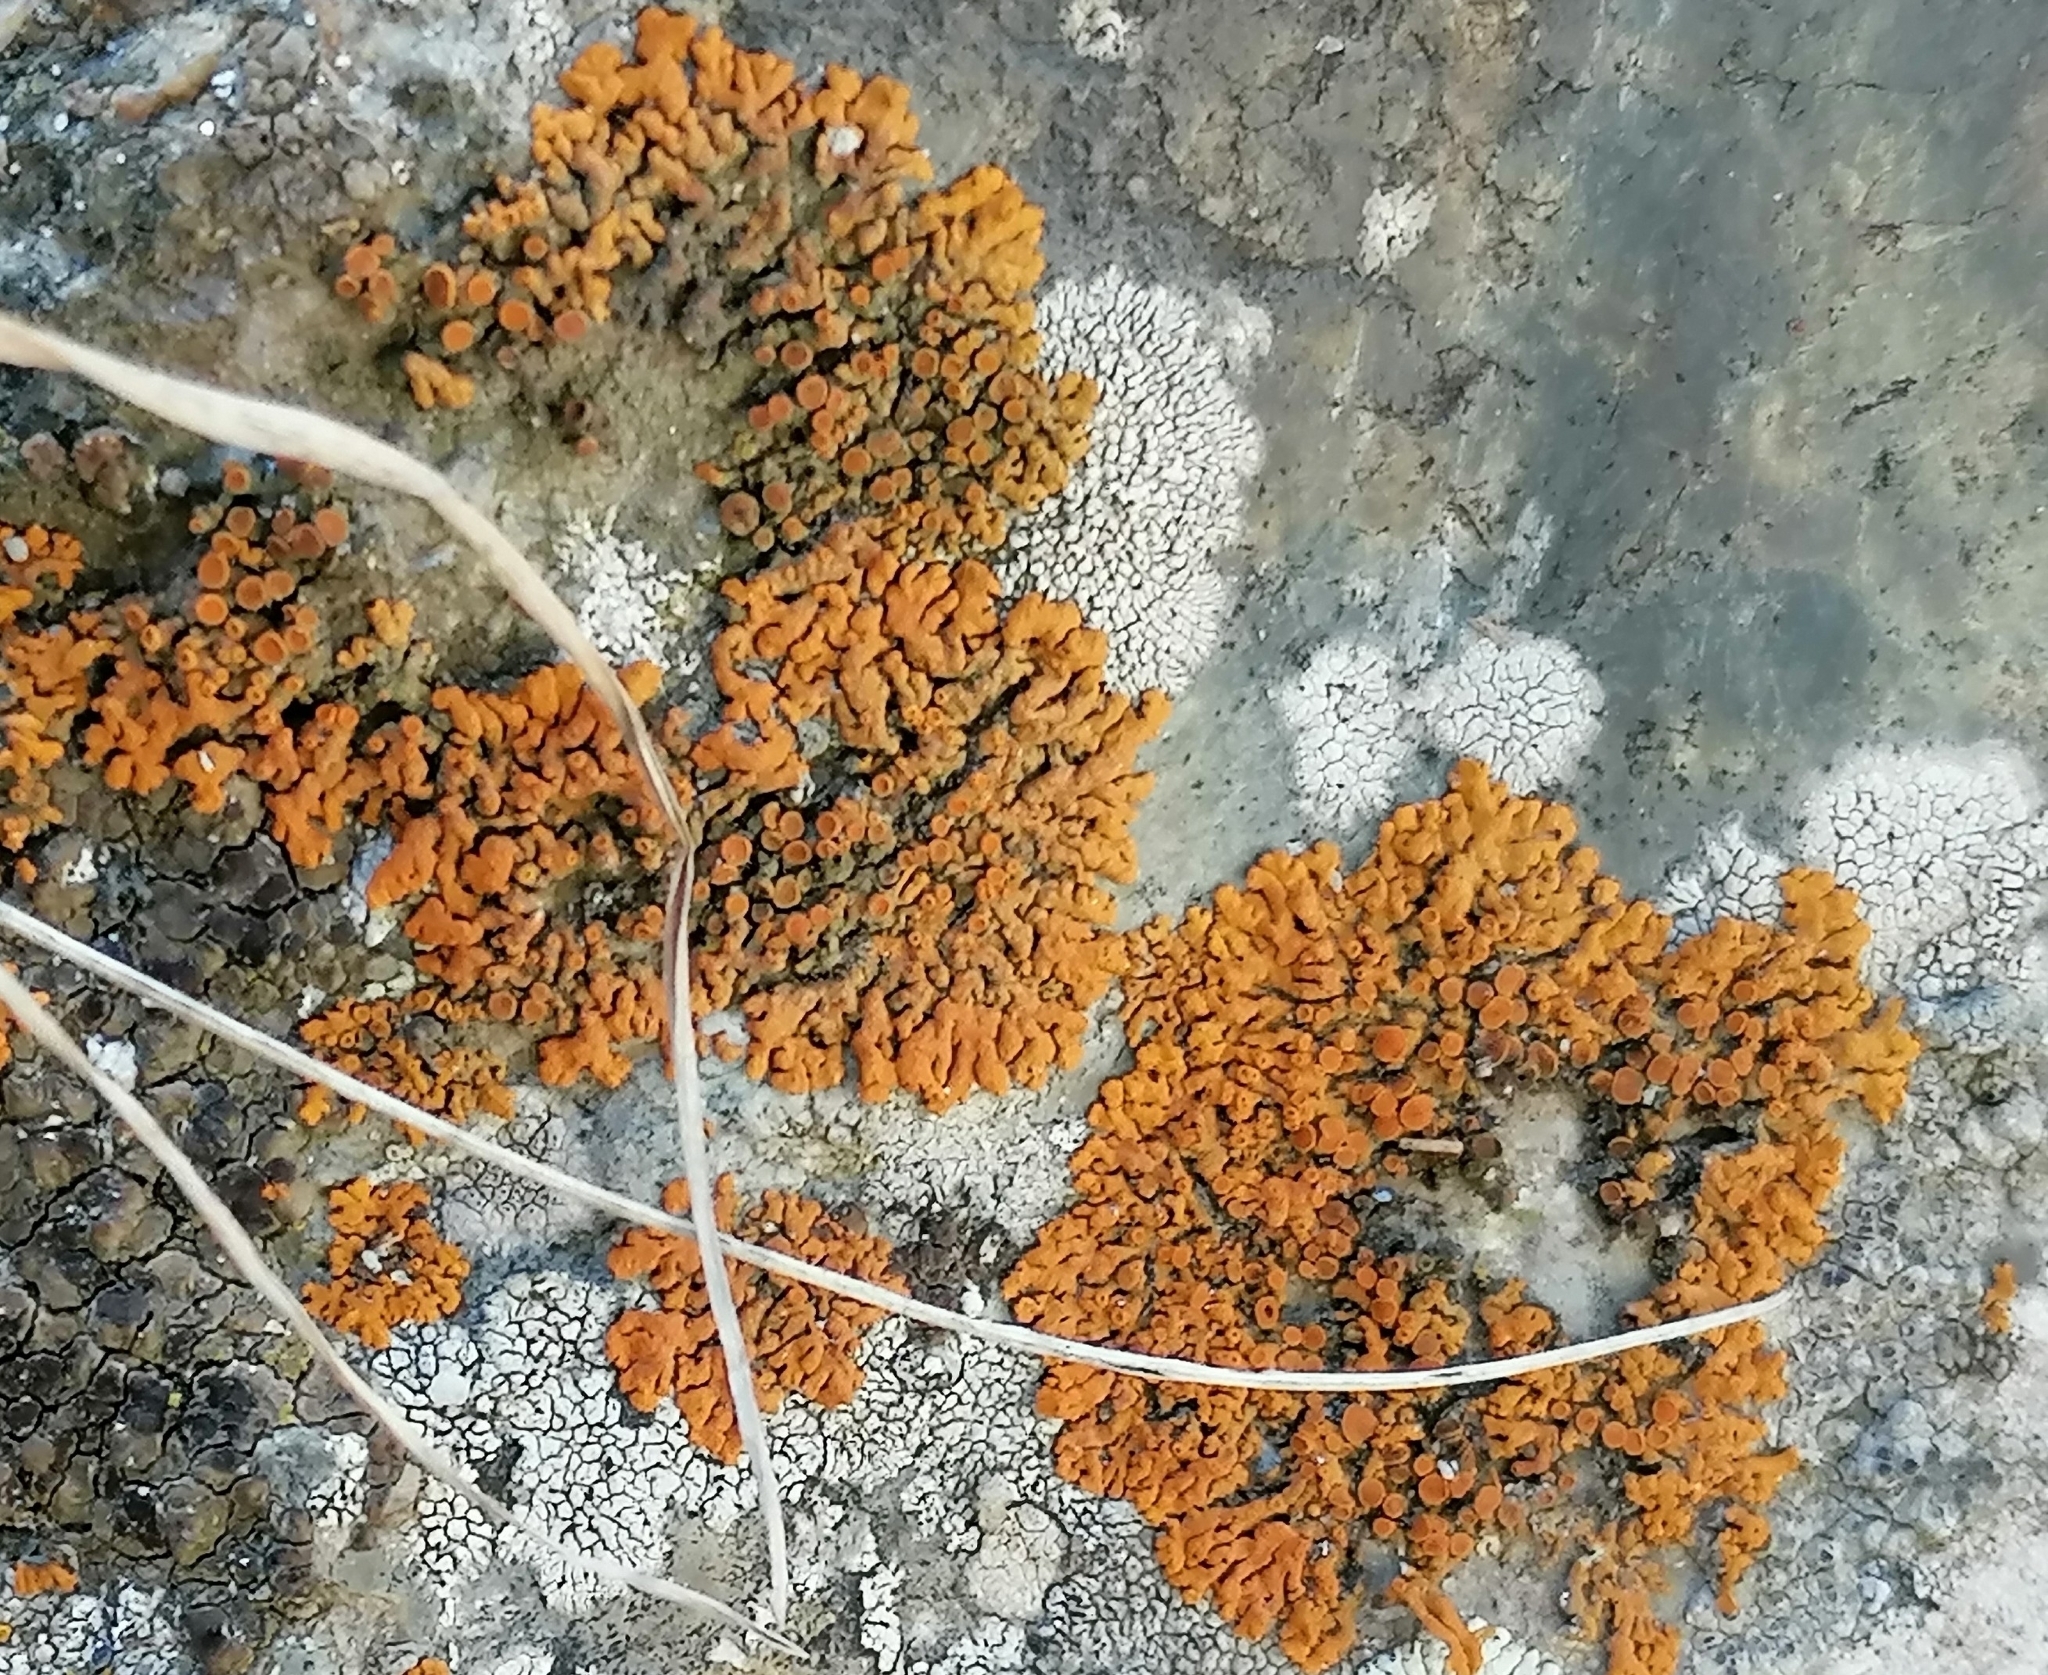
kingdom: Fungi
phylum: Ascomycota
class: Lecanoromycetes
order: Teloschistales
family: Teloschistaceae
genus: Xanthoria
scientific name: Xanthoria elegans
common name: Elegant sunburst lichen
